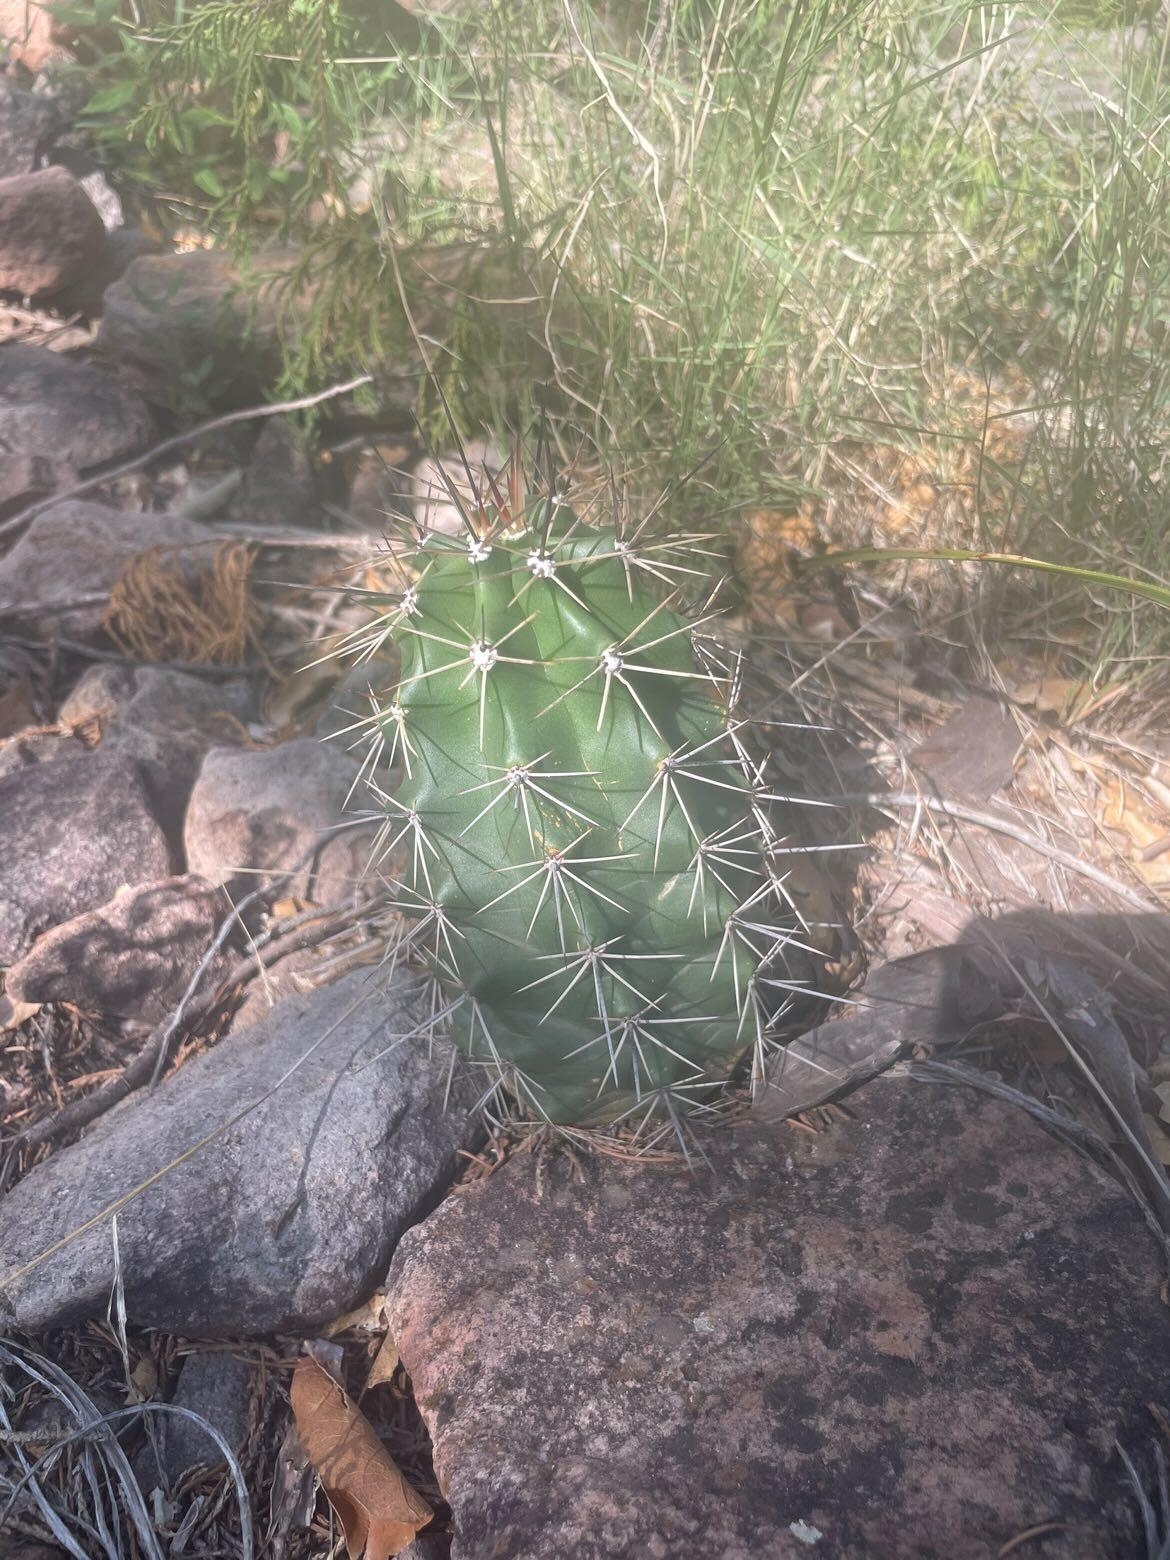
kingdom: Plantae
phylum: Tracheophyta
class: Magnoliopsida
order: Caryophyllales
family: Cactaceae
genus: Echinocereus
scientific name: Echinocereus coccineus
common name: Scarlet hedgehog cactus
